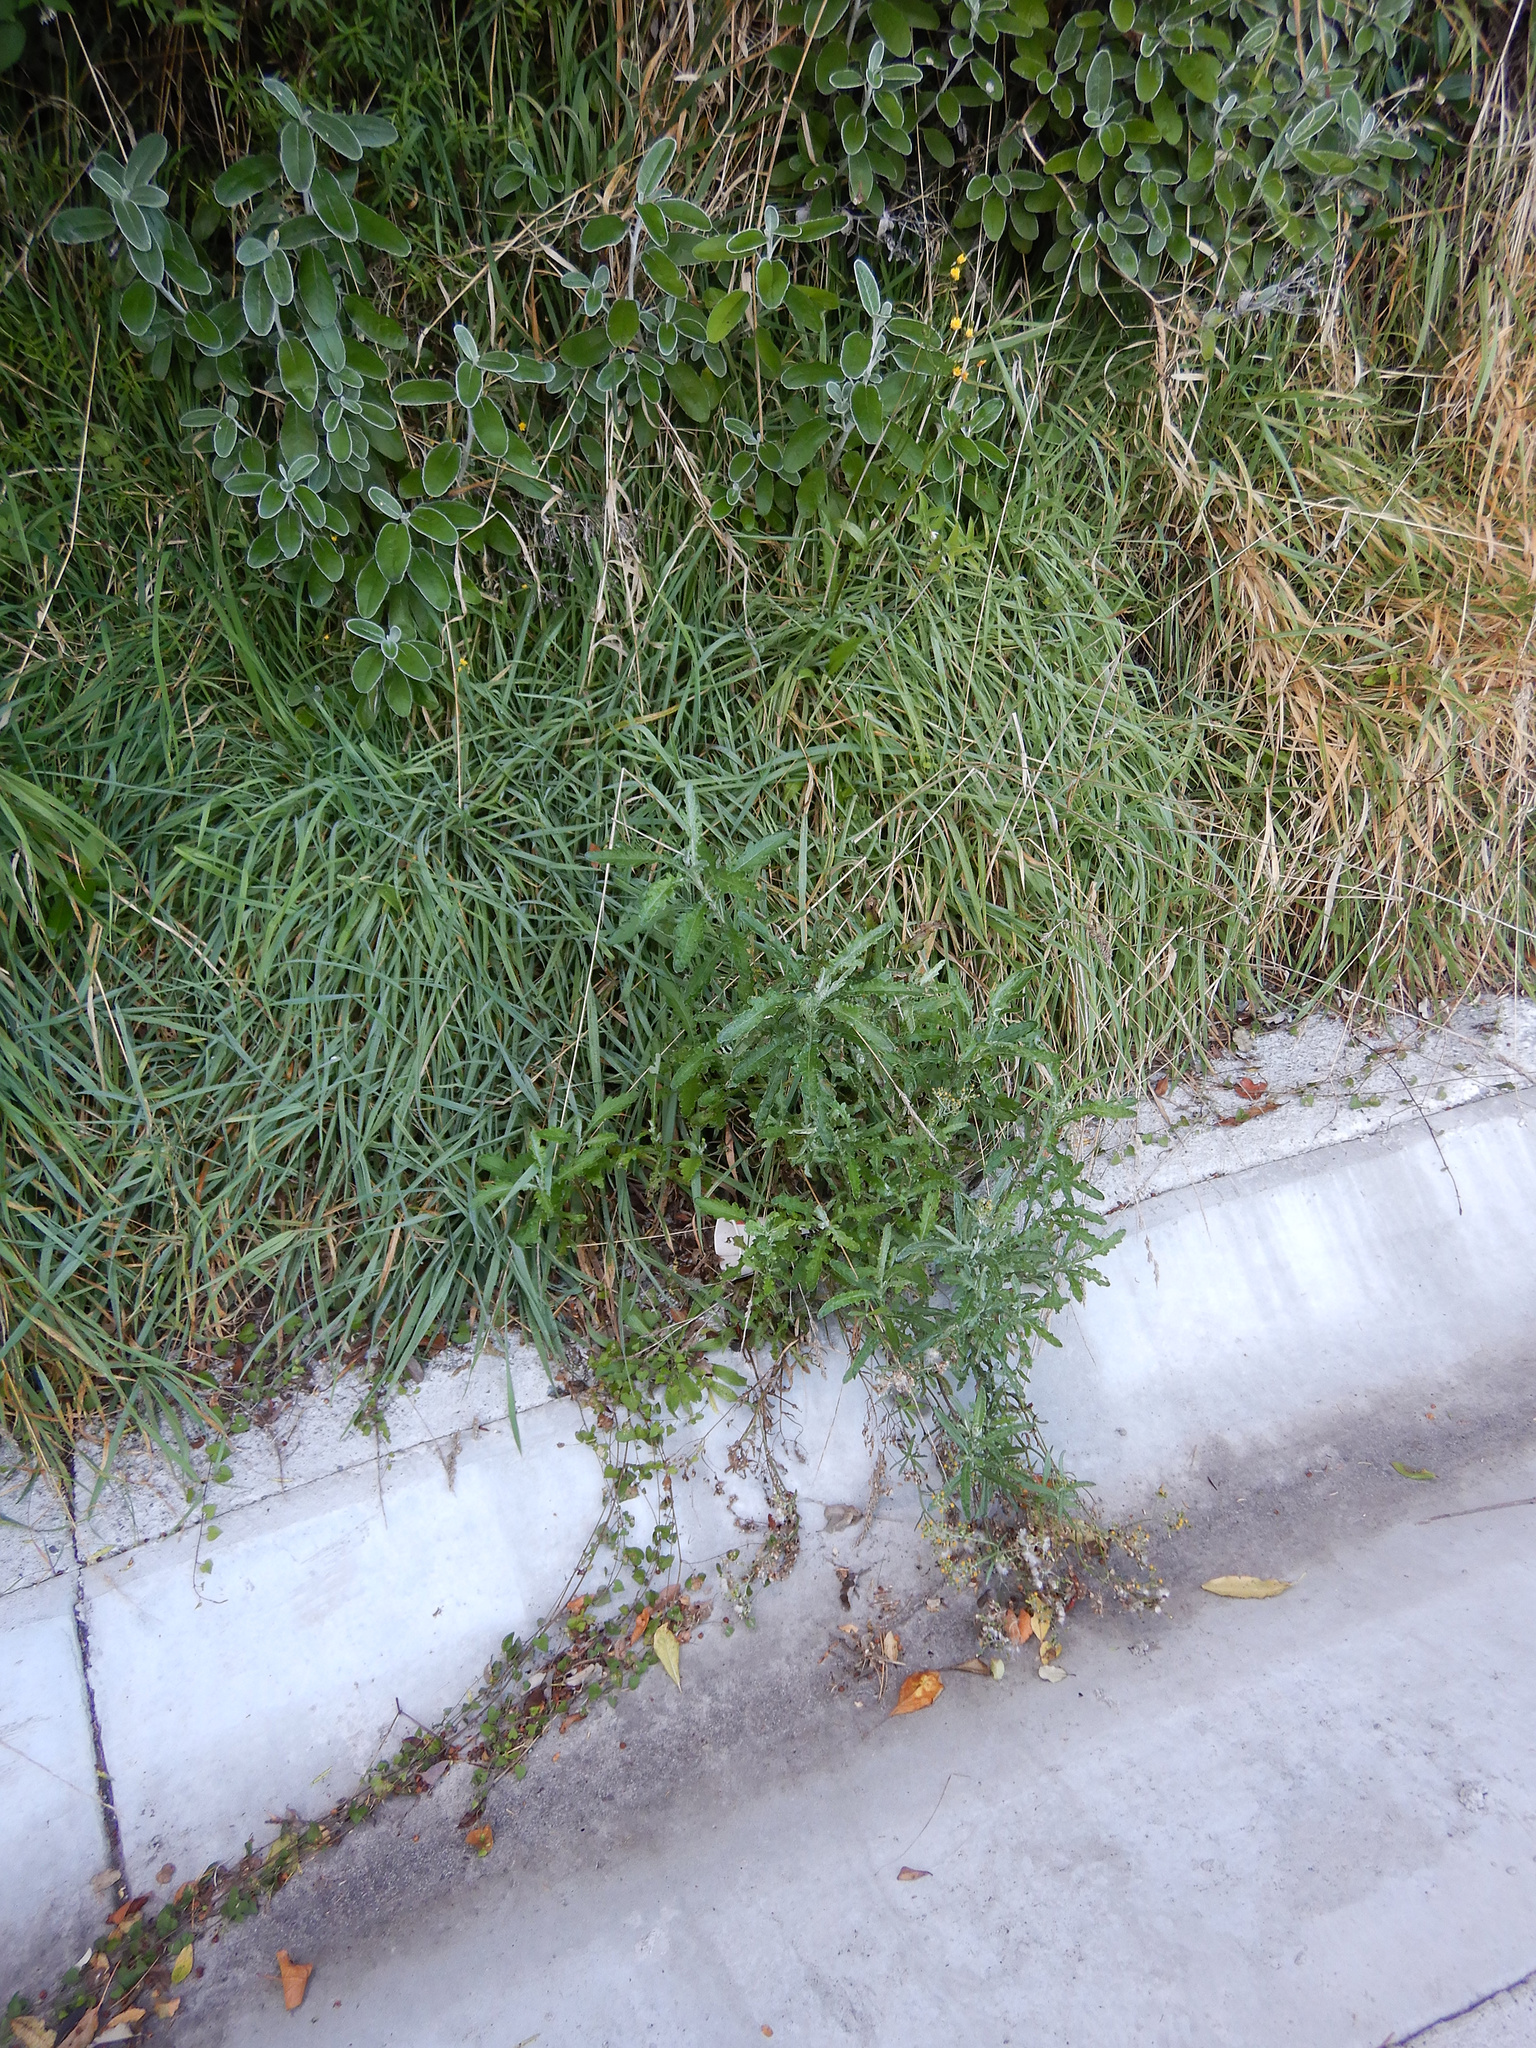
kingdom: Plantae
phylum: Tracheophyta
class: Magnoliopsida
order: Asterales
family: Asteraceae
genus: Senecio
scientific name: Senecio glomeratus
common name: Cutleaf burnweed
